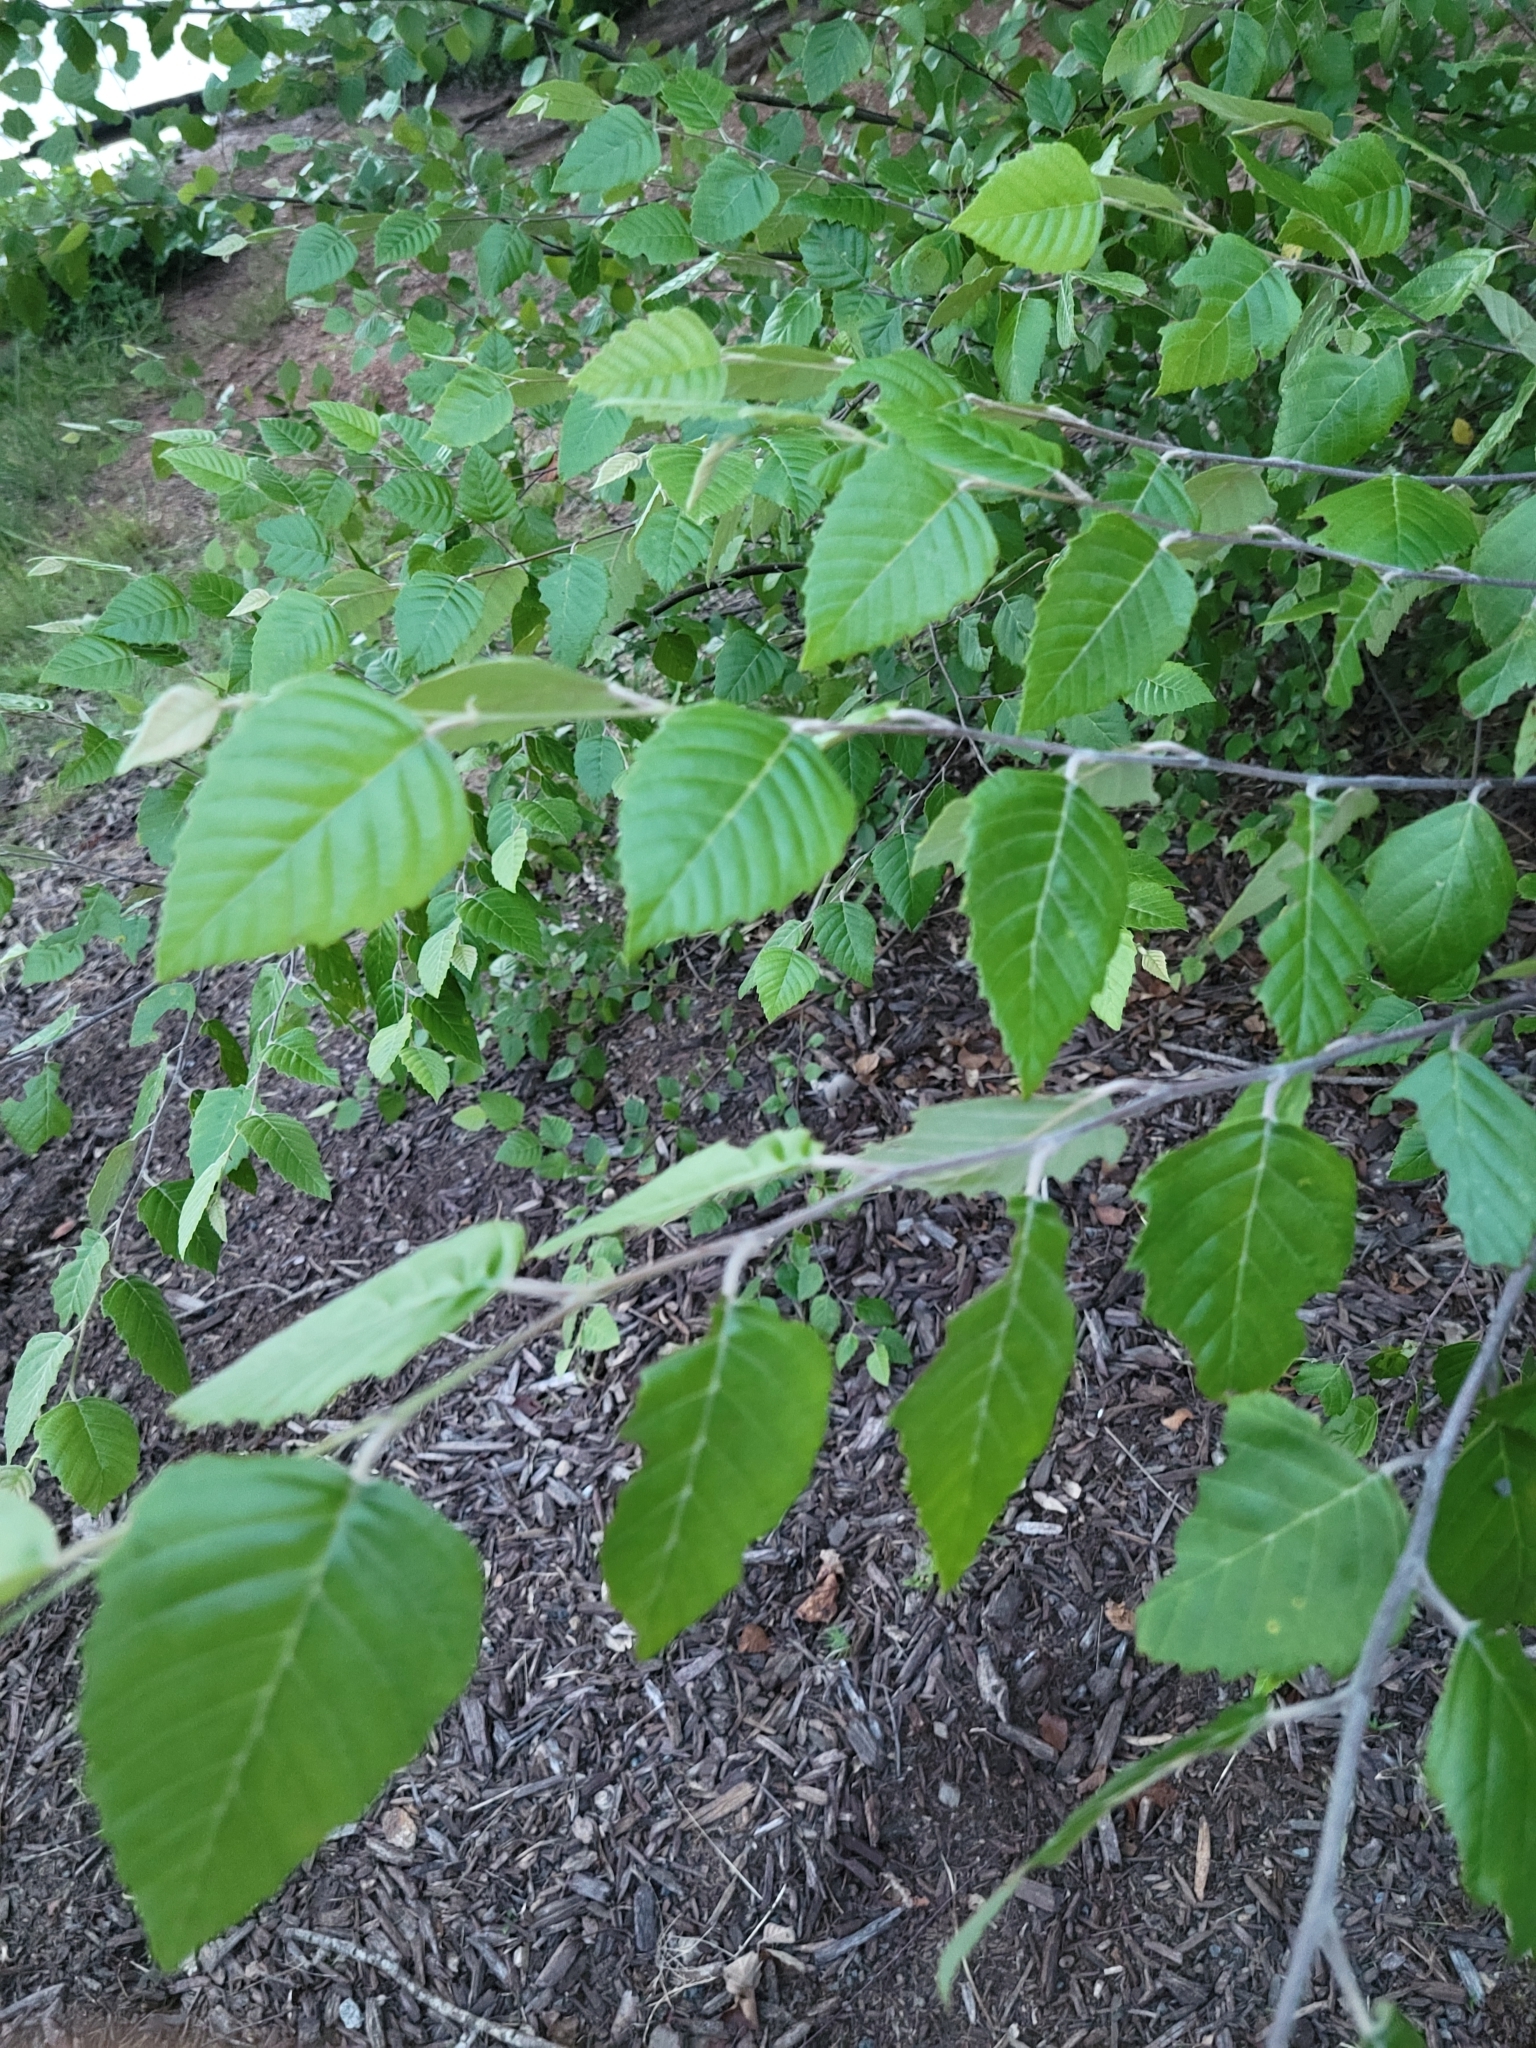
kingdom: Plantae
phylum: Tracheophyta
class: Magnoliopsida
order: Fagales
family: Betulaceae
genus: Betula
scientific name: Betula nigra
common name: Black birch
